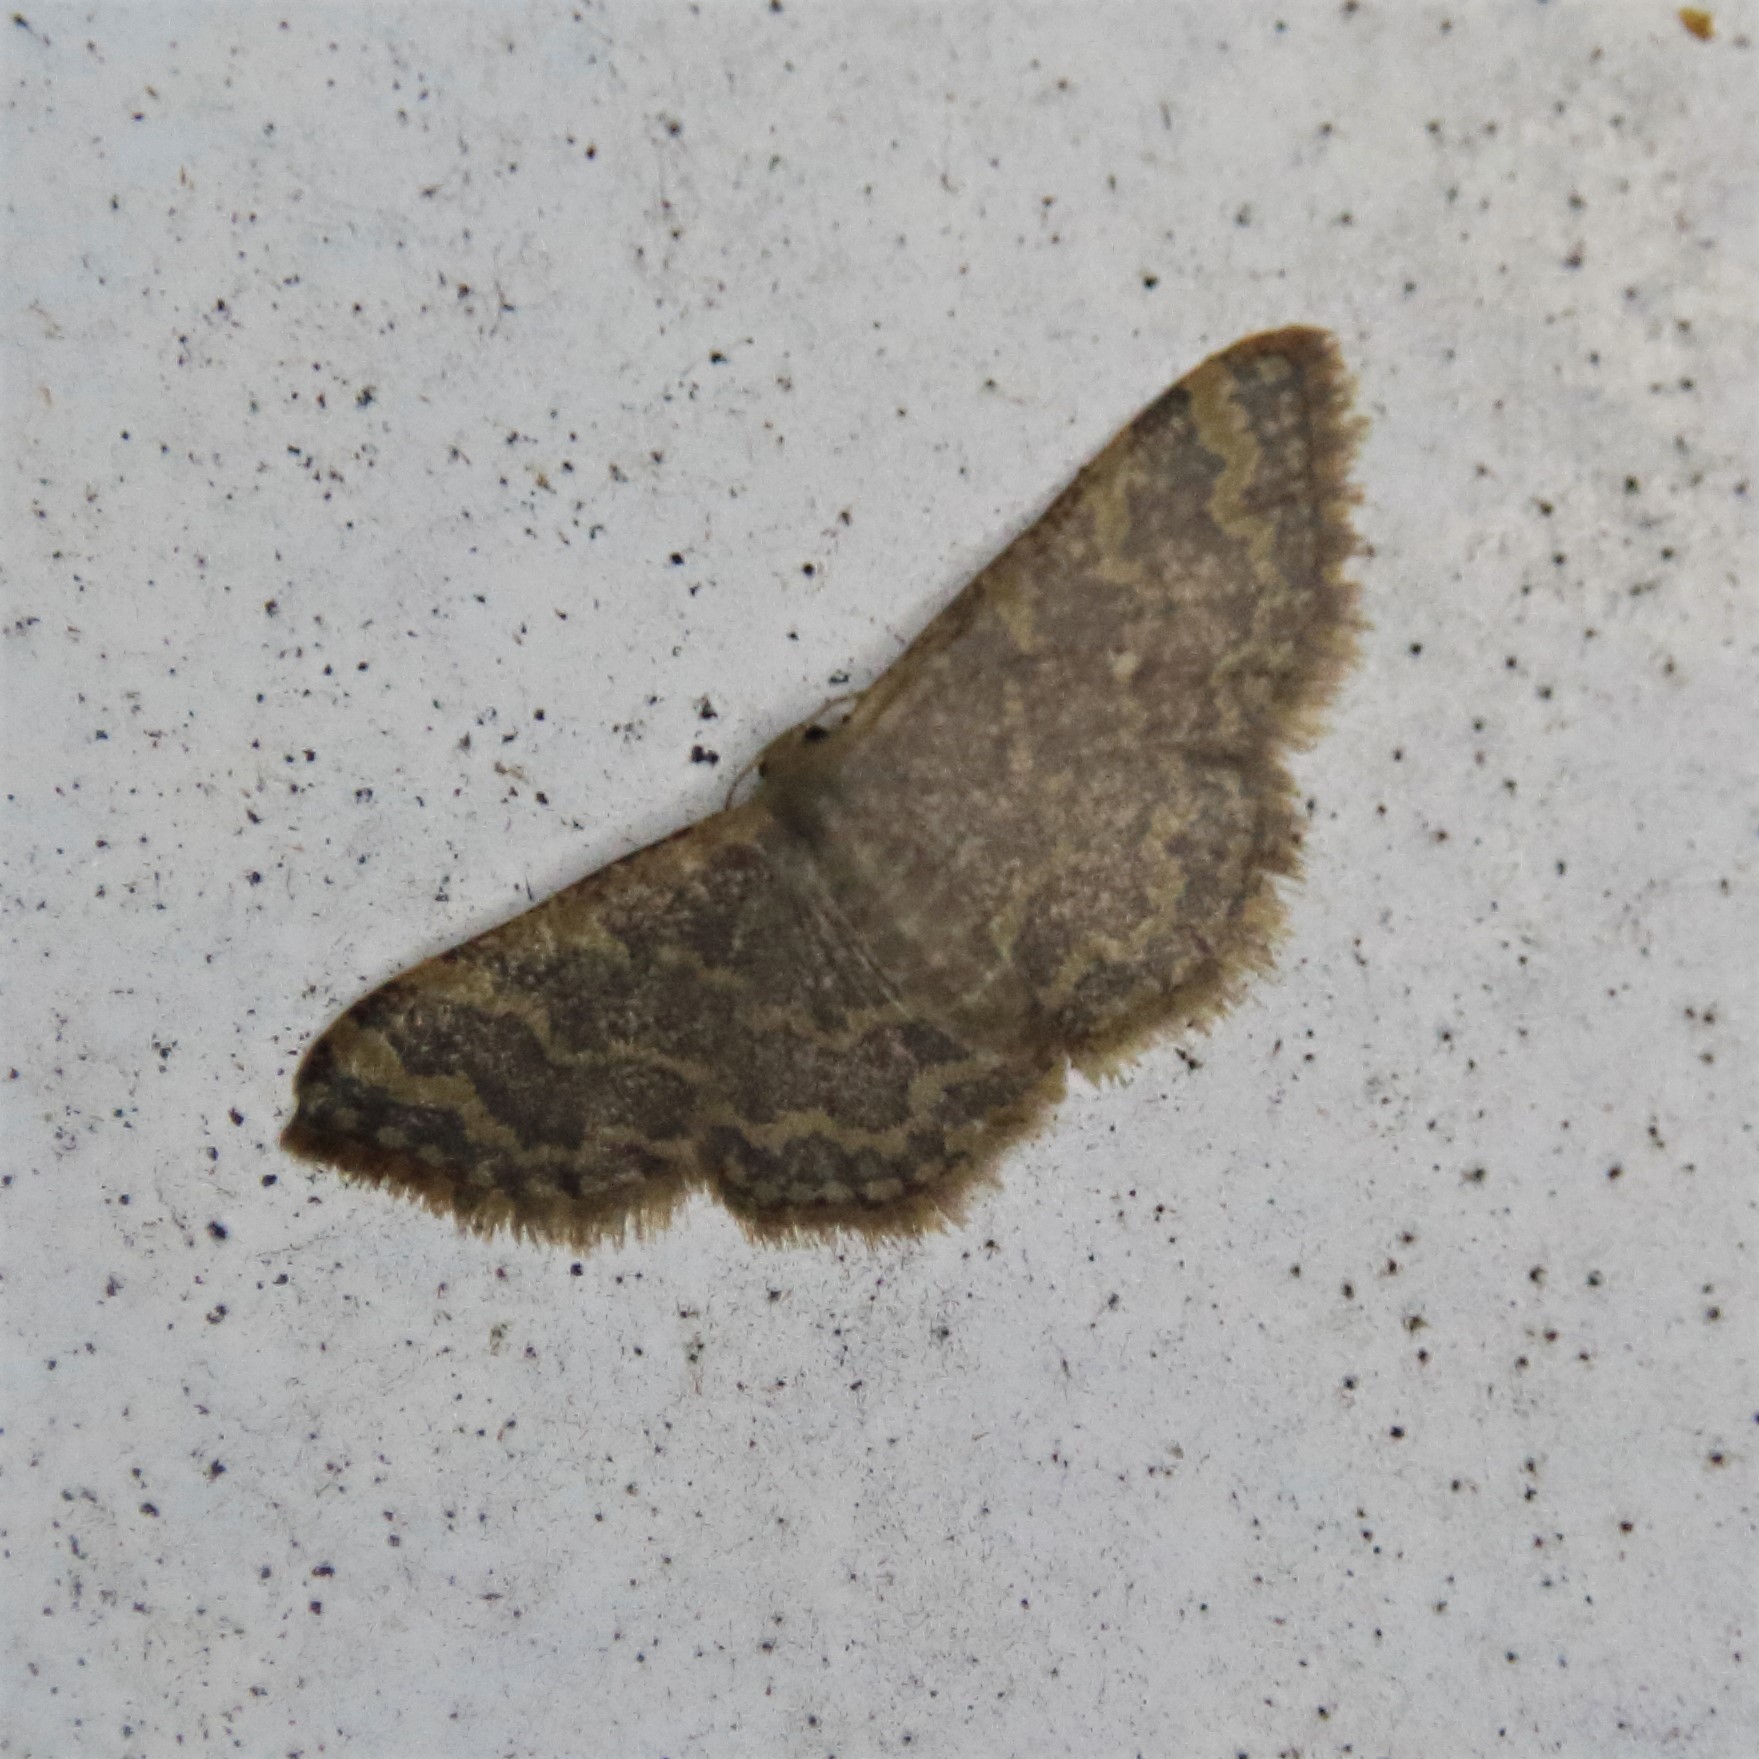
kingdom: Animalia
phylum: Arthropoda
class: Insecta
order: Lepidoptera
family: Geometridae
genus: Idaea
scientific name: Idaea costiguttata
